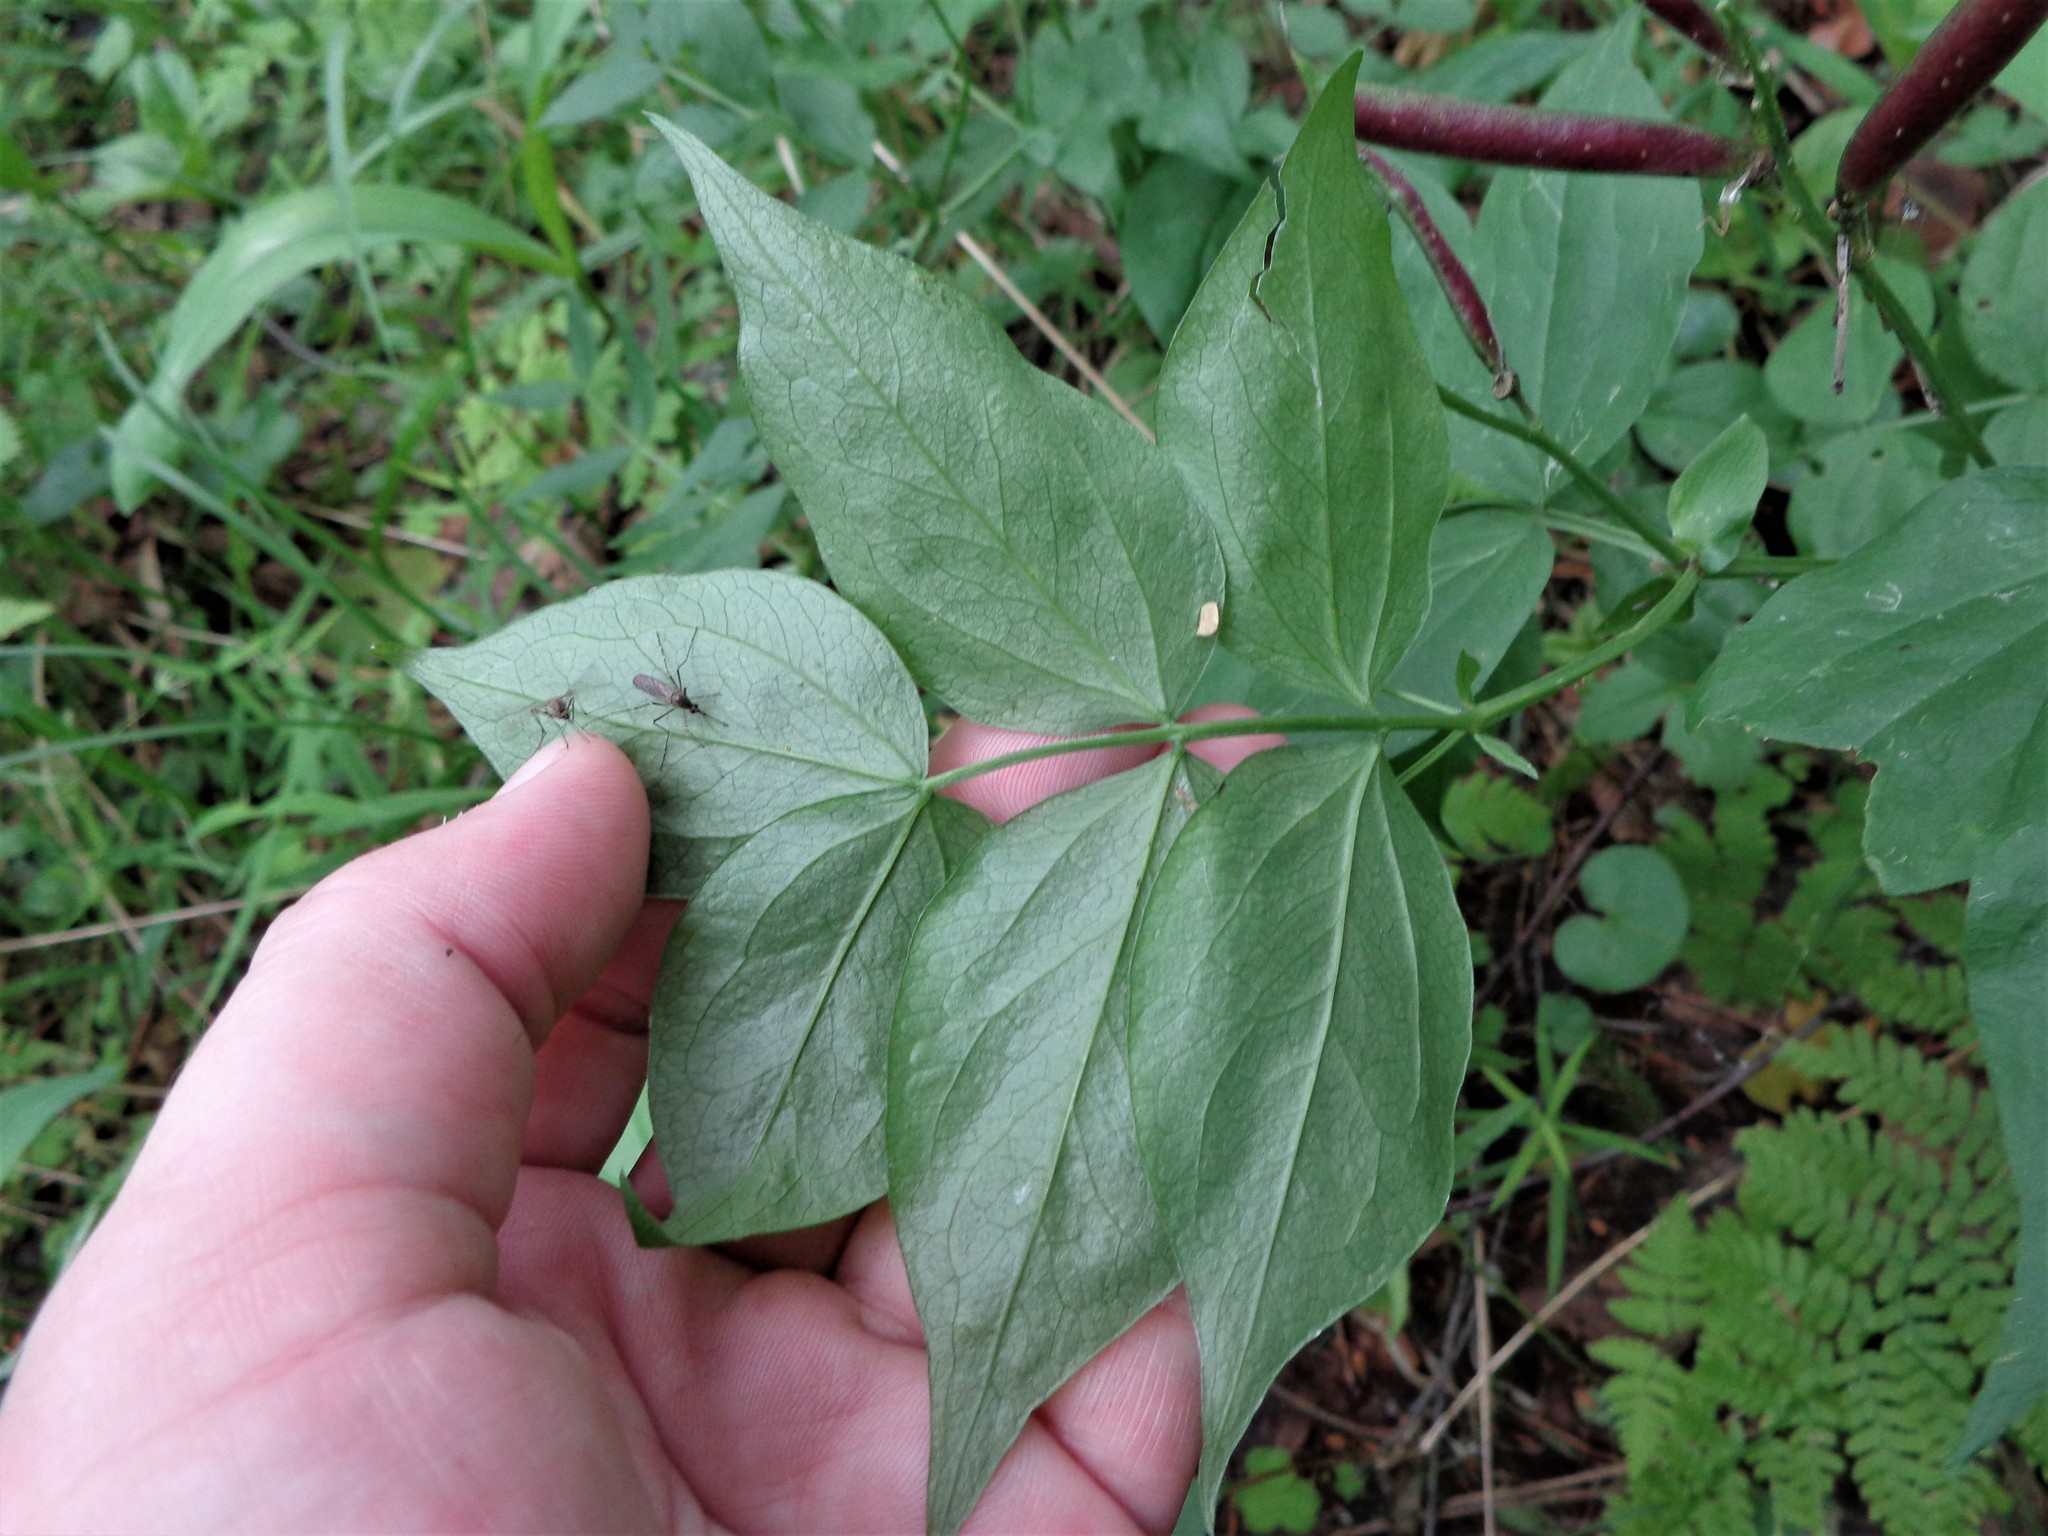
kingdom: Plantae
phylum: Tracheophyta
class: Magnoliopsida
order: Fabales
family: Fabaceae
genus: Lathyrus
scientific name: Lathyrus vernus
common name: Spring pea
